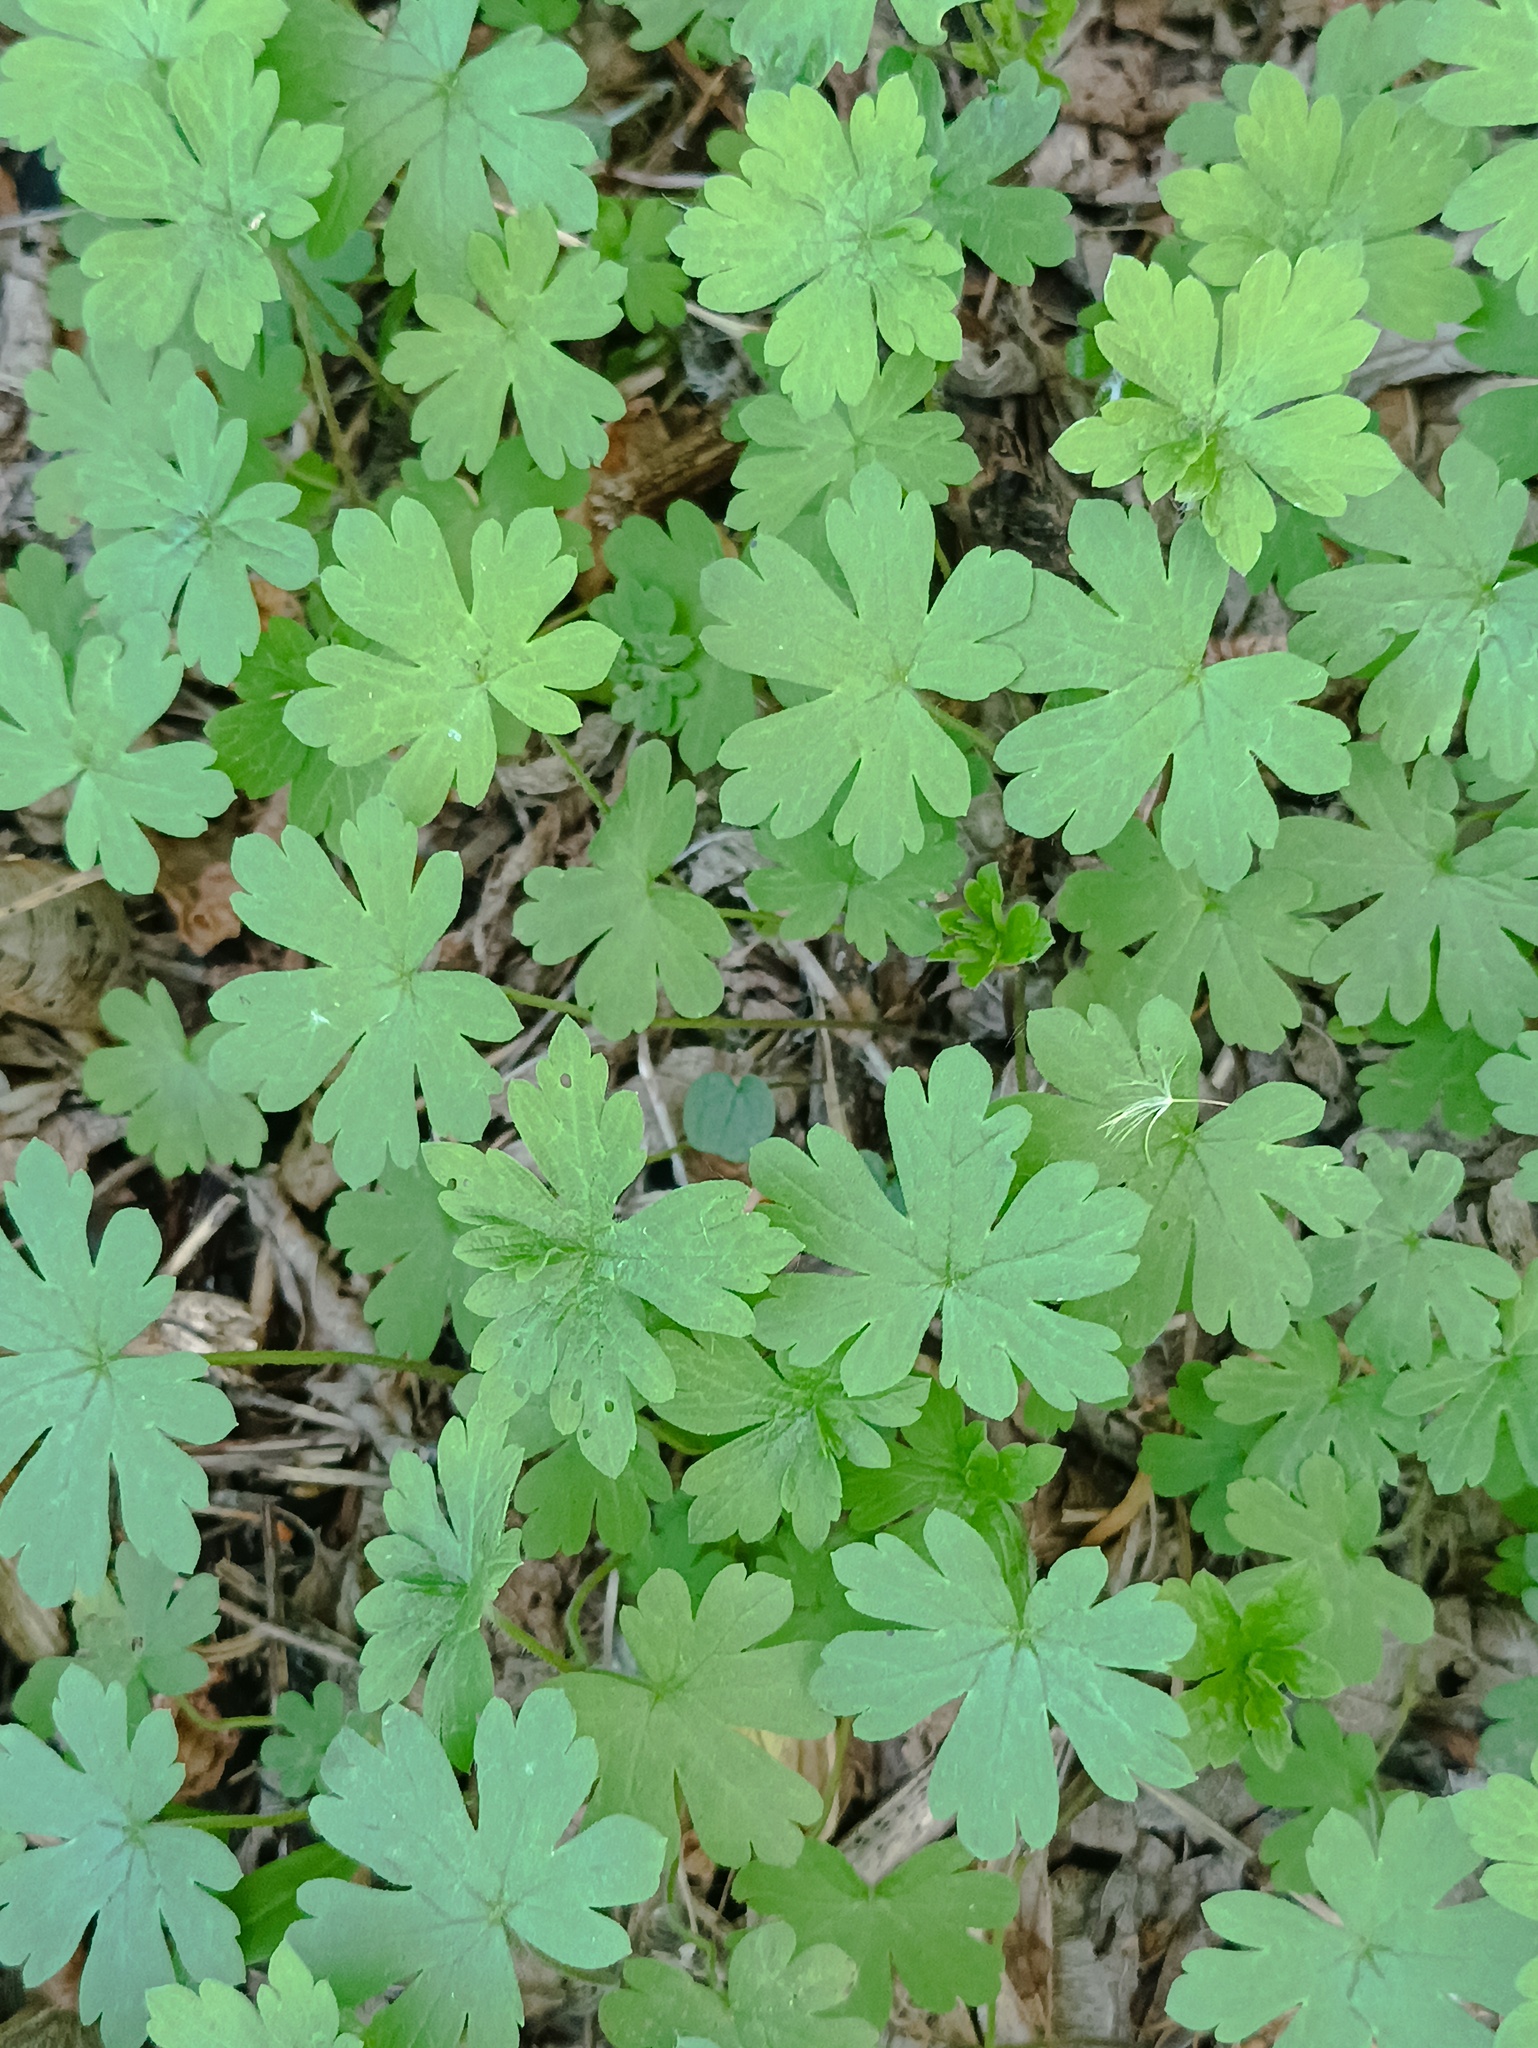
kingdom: Plantae
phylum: Tracheophyta
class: Magnoliopsida
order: Geraniales
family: Geraniaceae
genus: Geranium
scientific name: Geranium sibiricum
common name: Siberian crane's-bill
